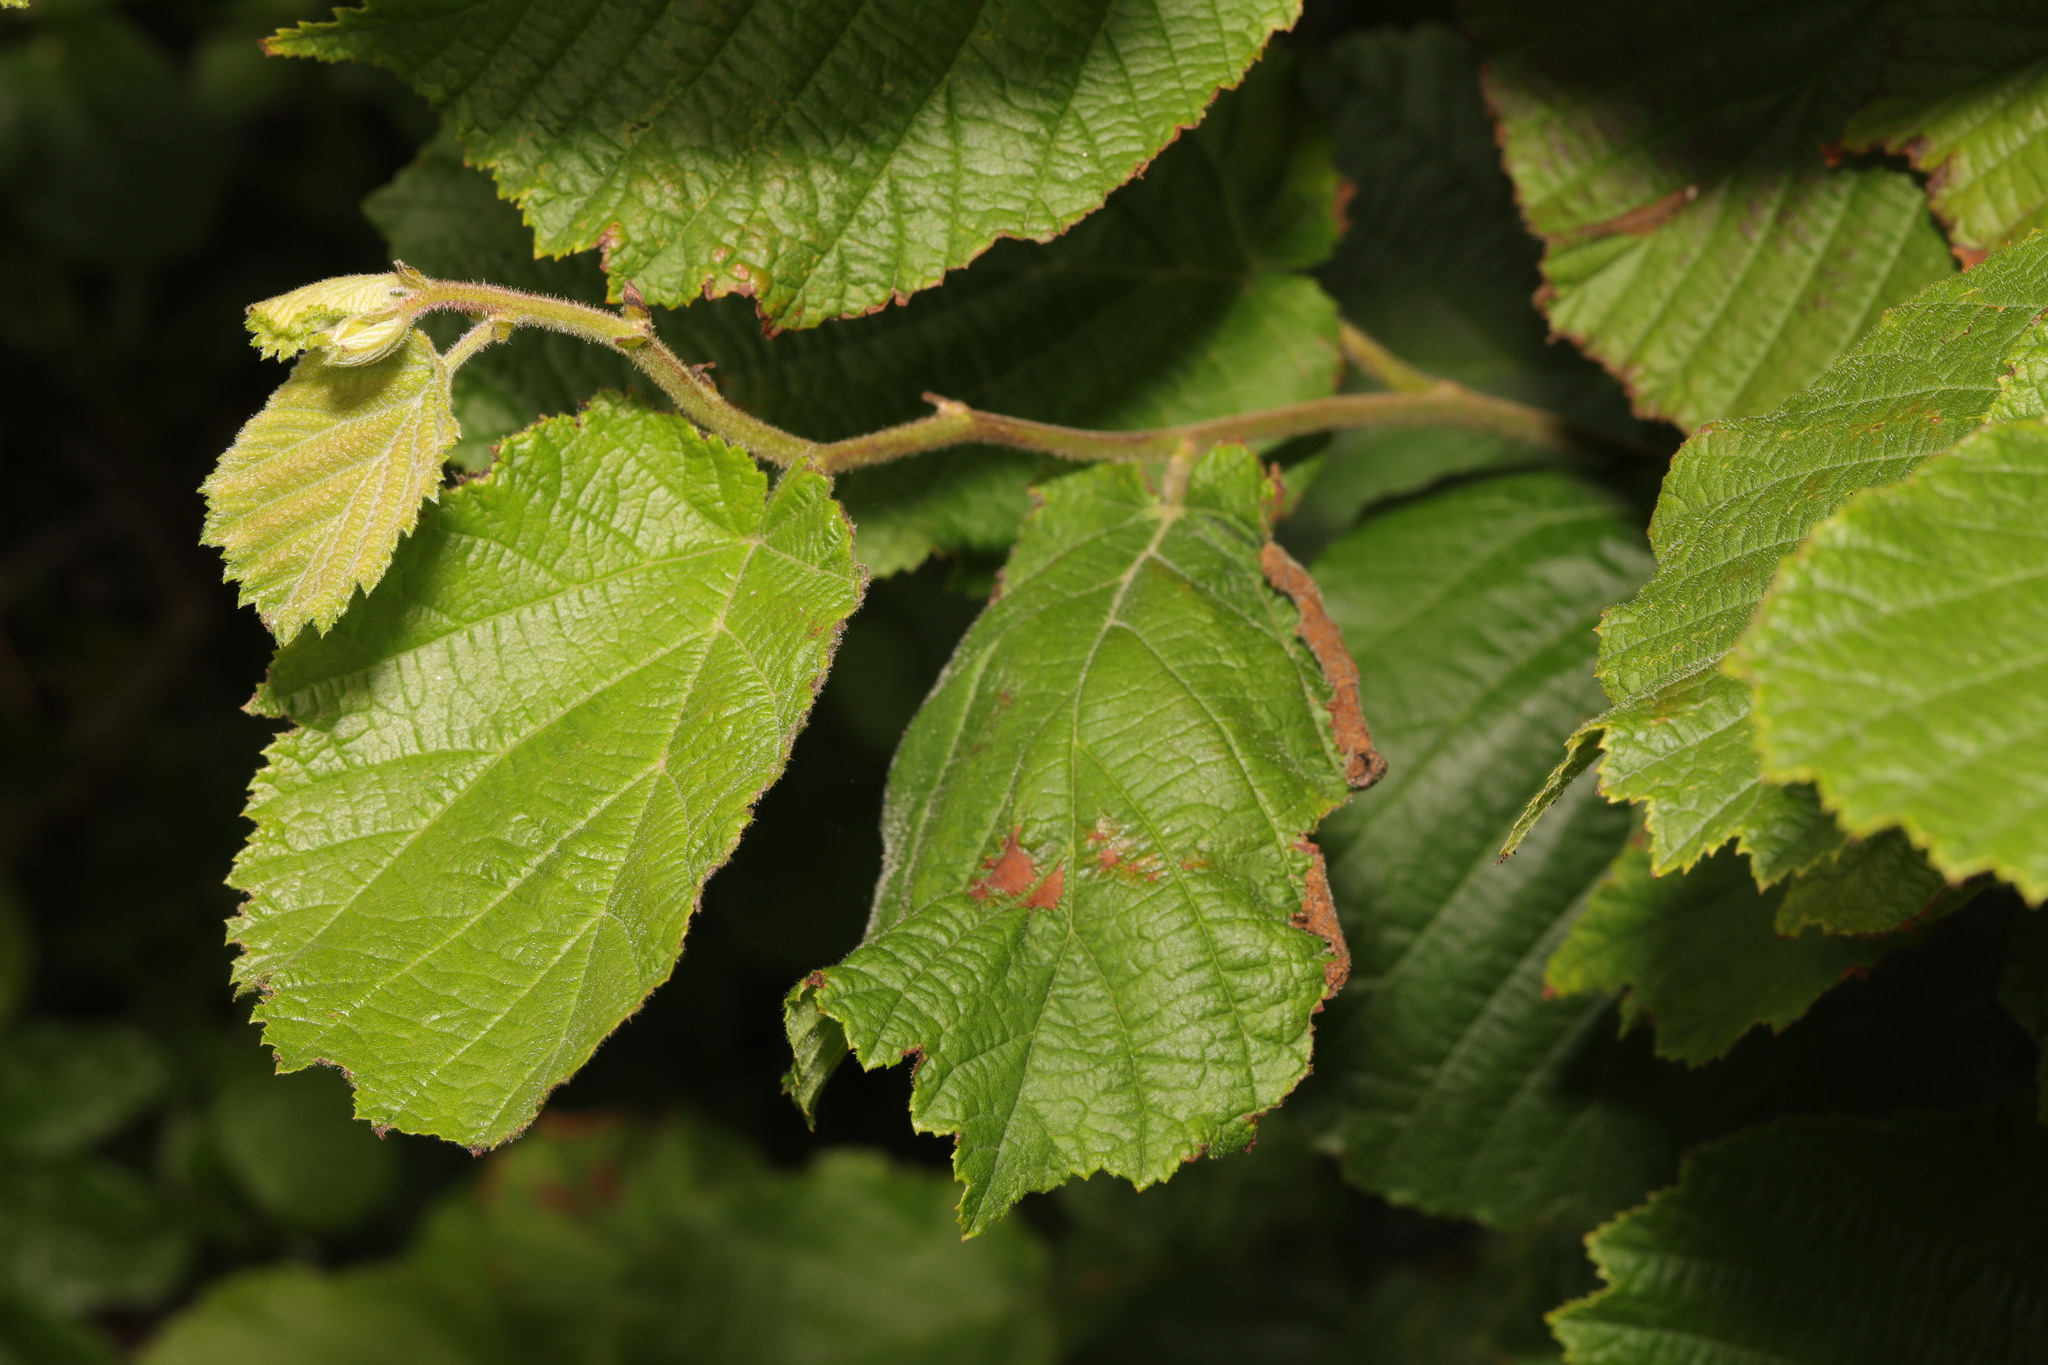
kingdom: Plantae
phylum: Tracheophyta
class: Magnoliopsida
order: Fagales
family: Betulaceae
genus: Corylus
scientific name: Corylus avellana
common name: European hazel
